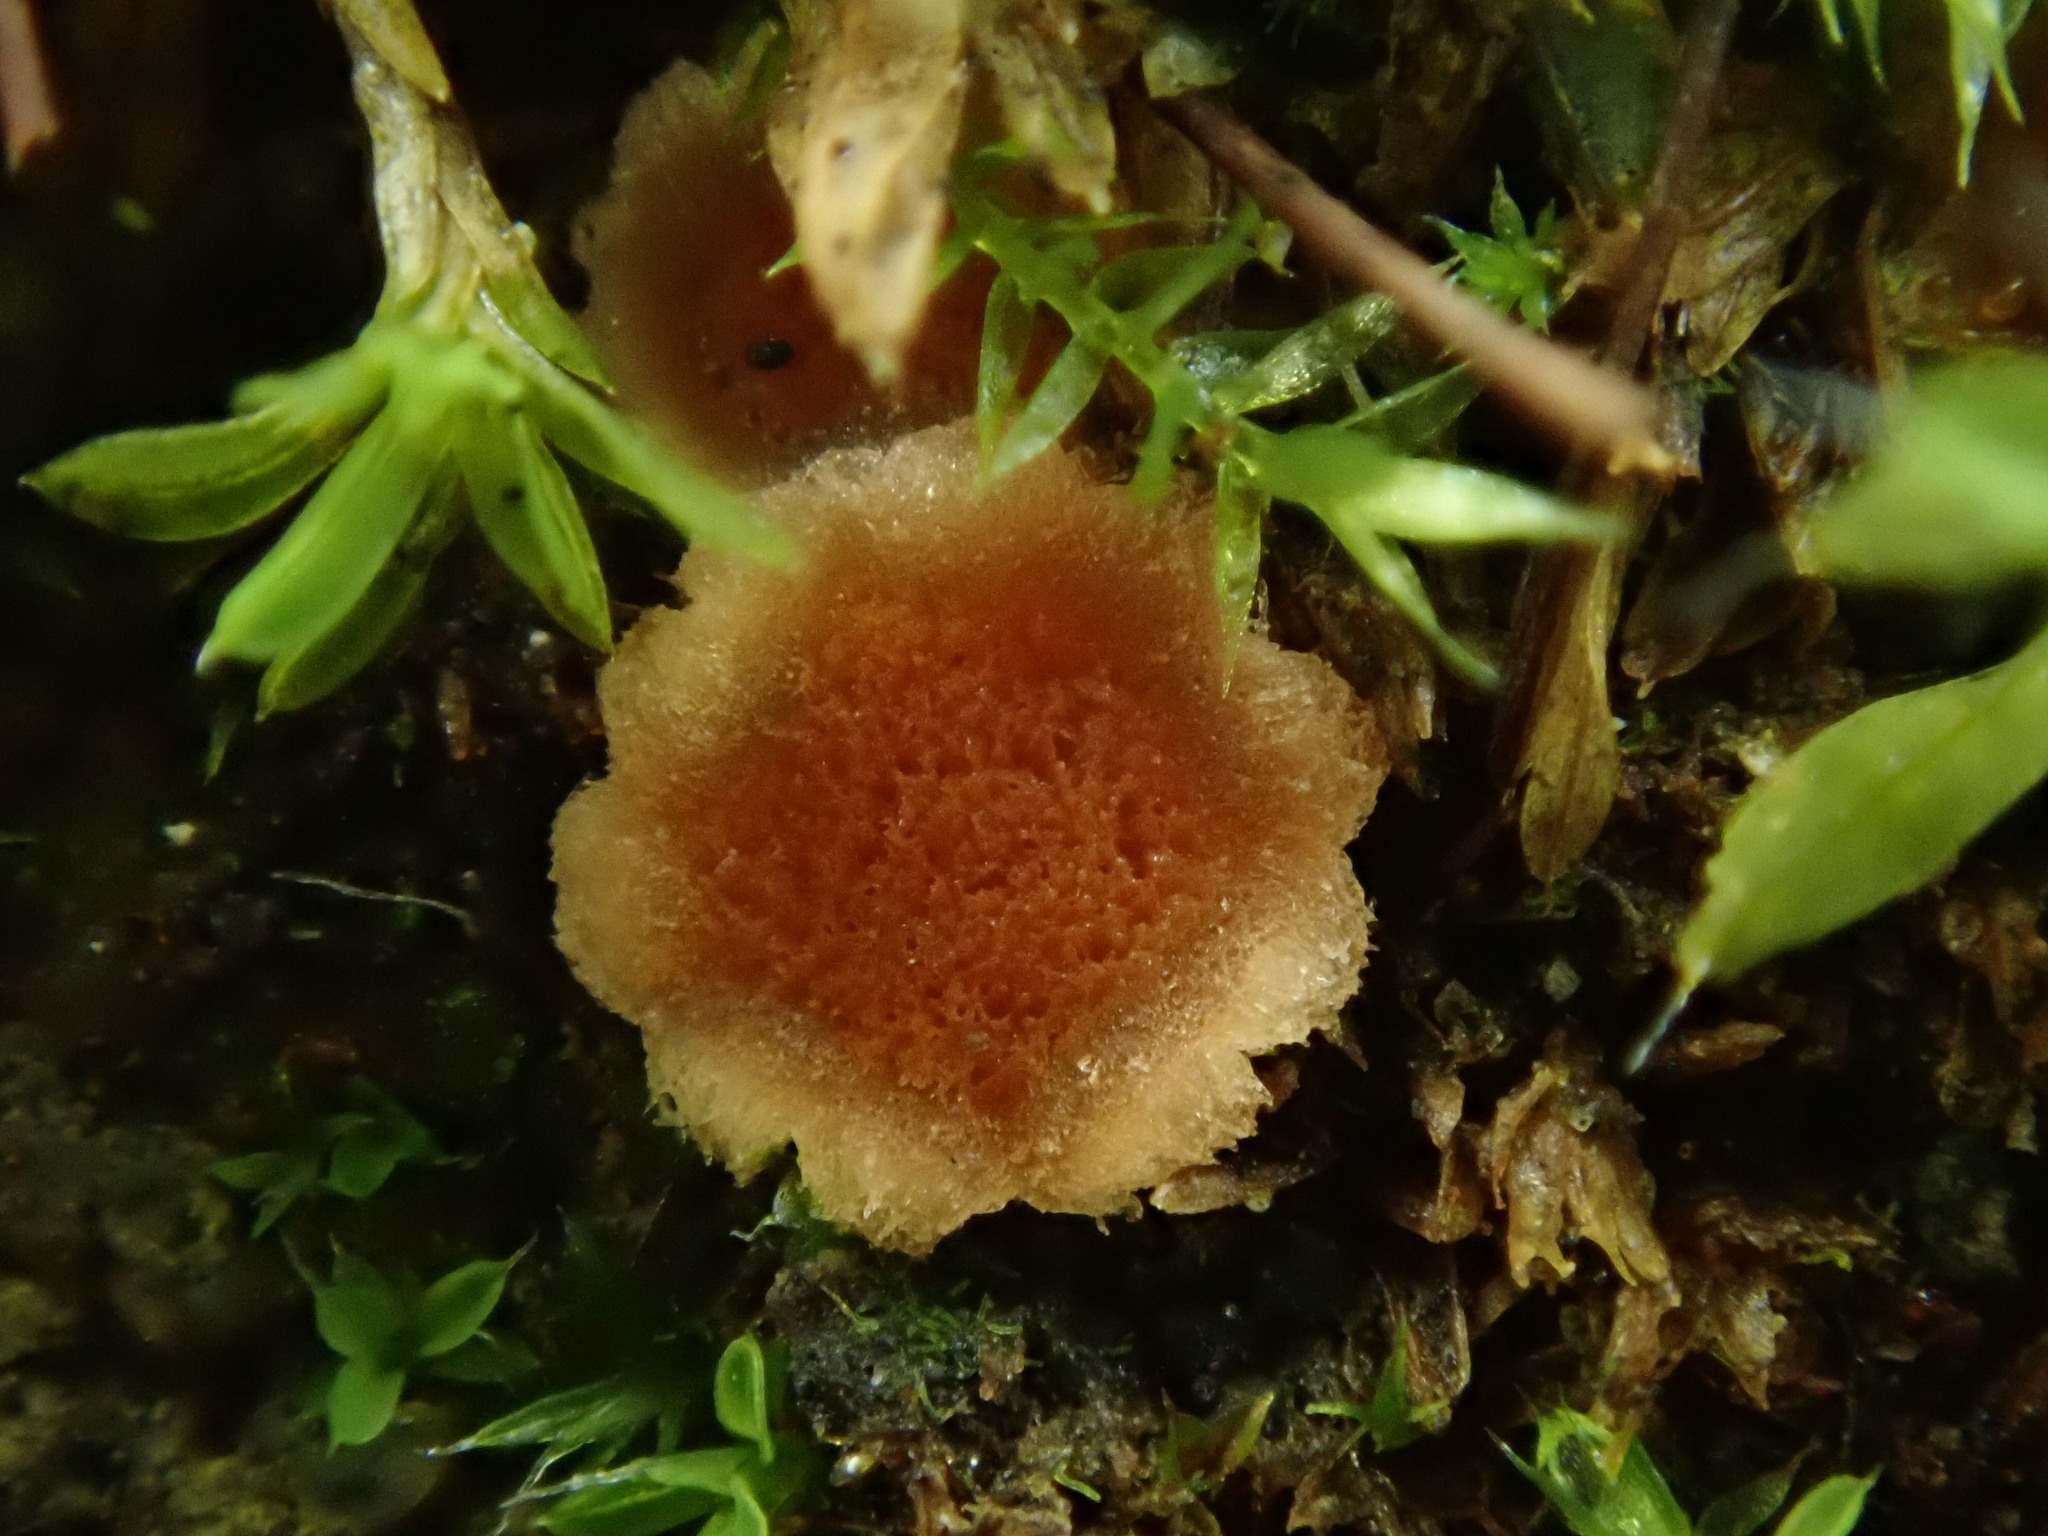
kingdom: Fungi
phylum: Ascomycota
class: Pezizomycetes
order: Pezizales
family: Pyronemataceae
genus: Lamprospora
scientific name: Lamprospora retispora
